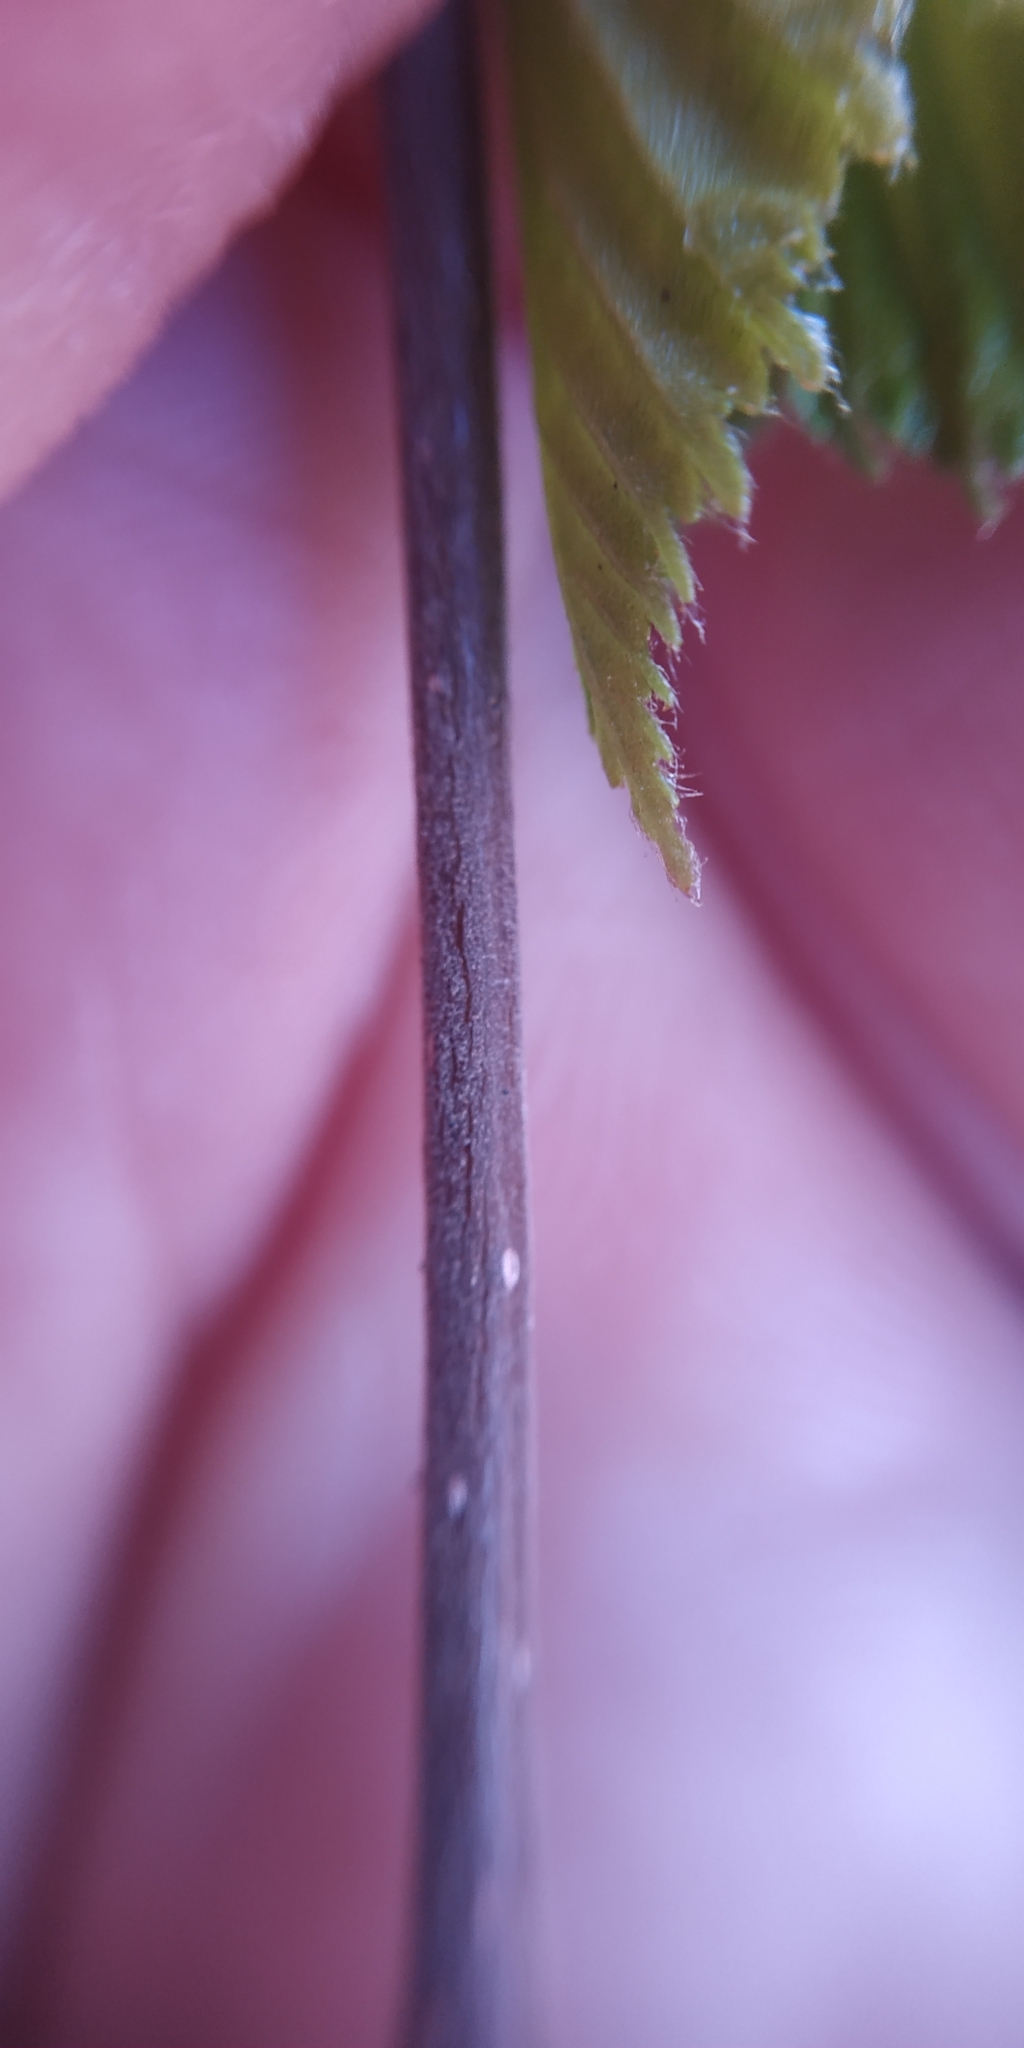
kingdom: Plantae
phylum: Tracheophyta
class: Magnoliopsida
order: Fagales
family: Betulaceae
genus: Betula
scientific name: Betula pubescens
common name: Downy birch
